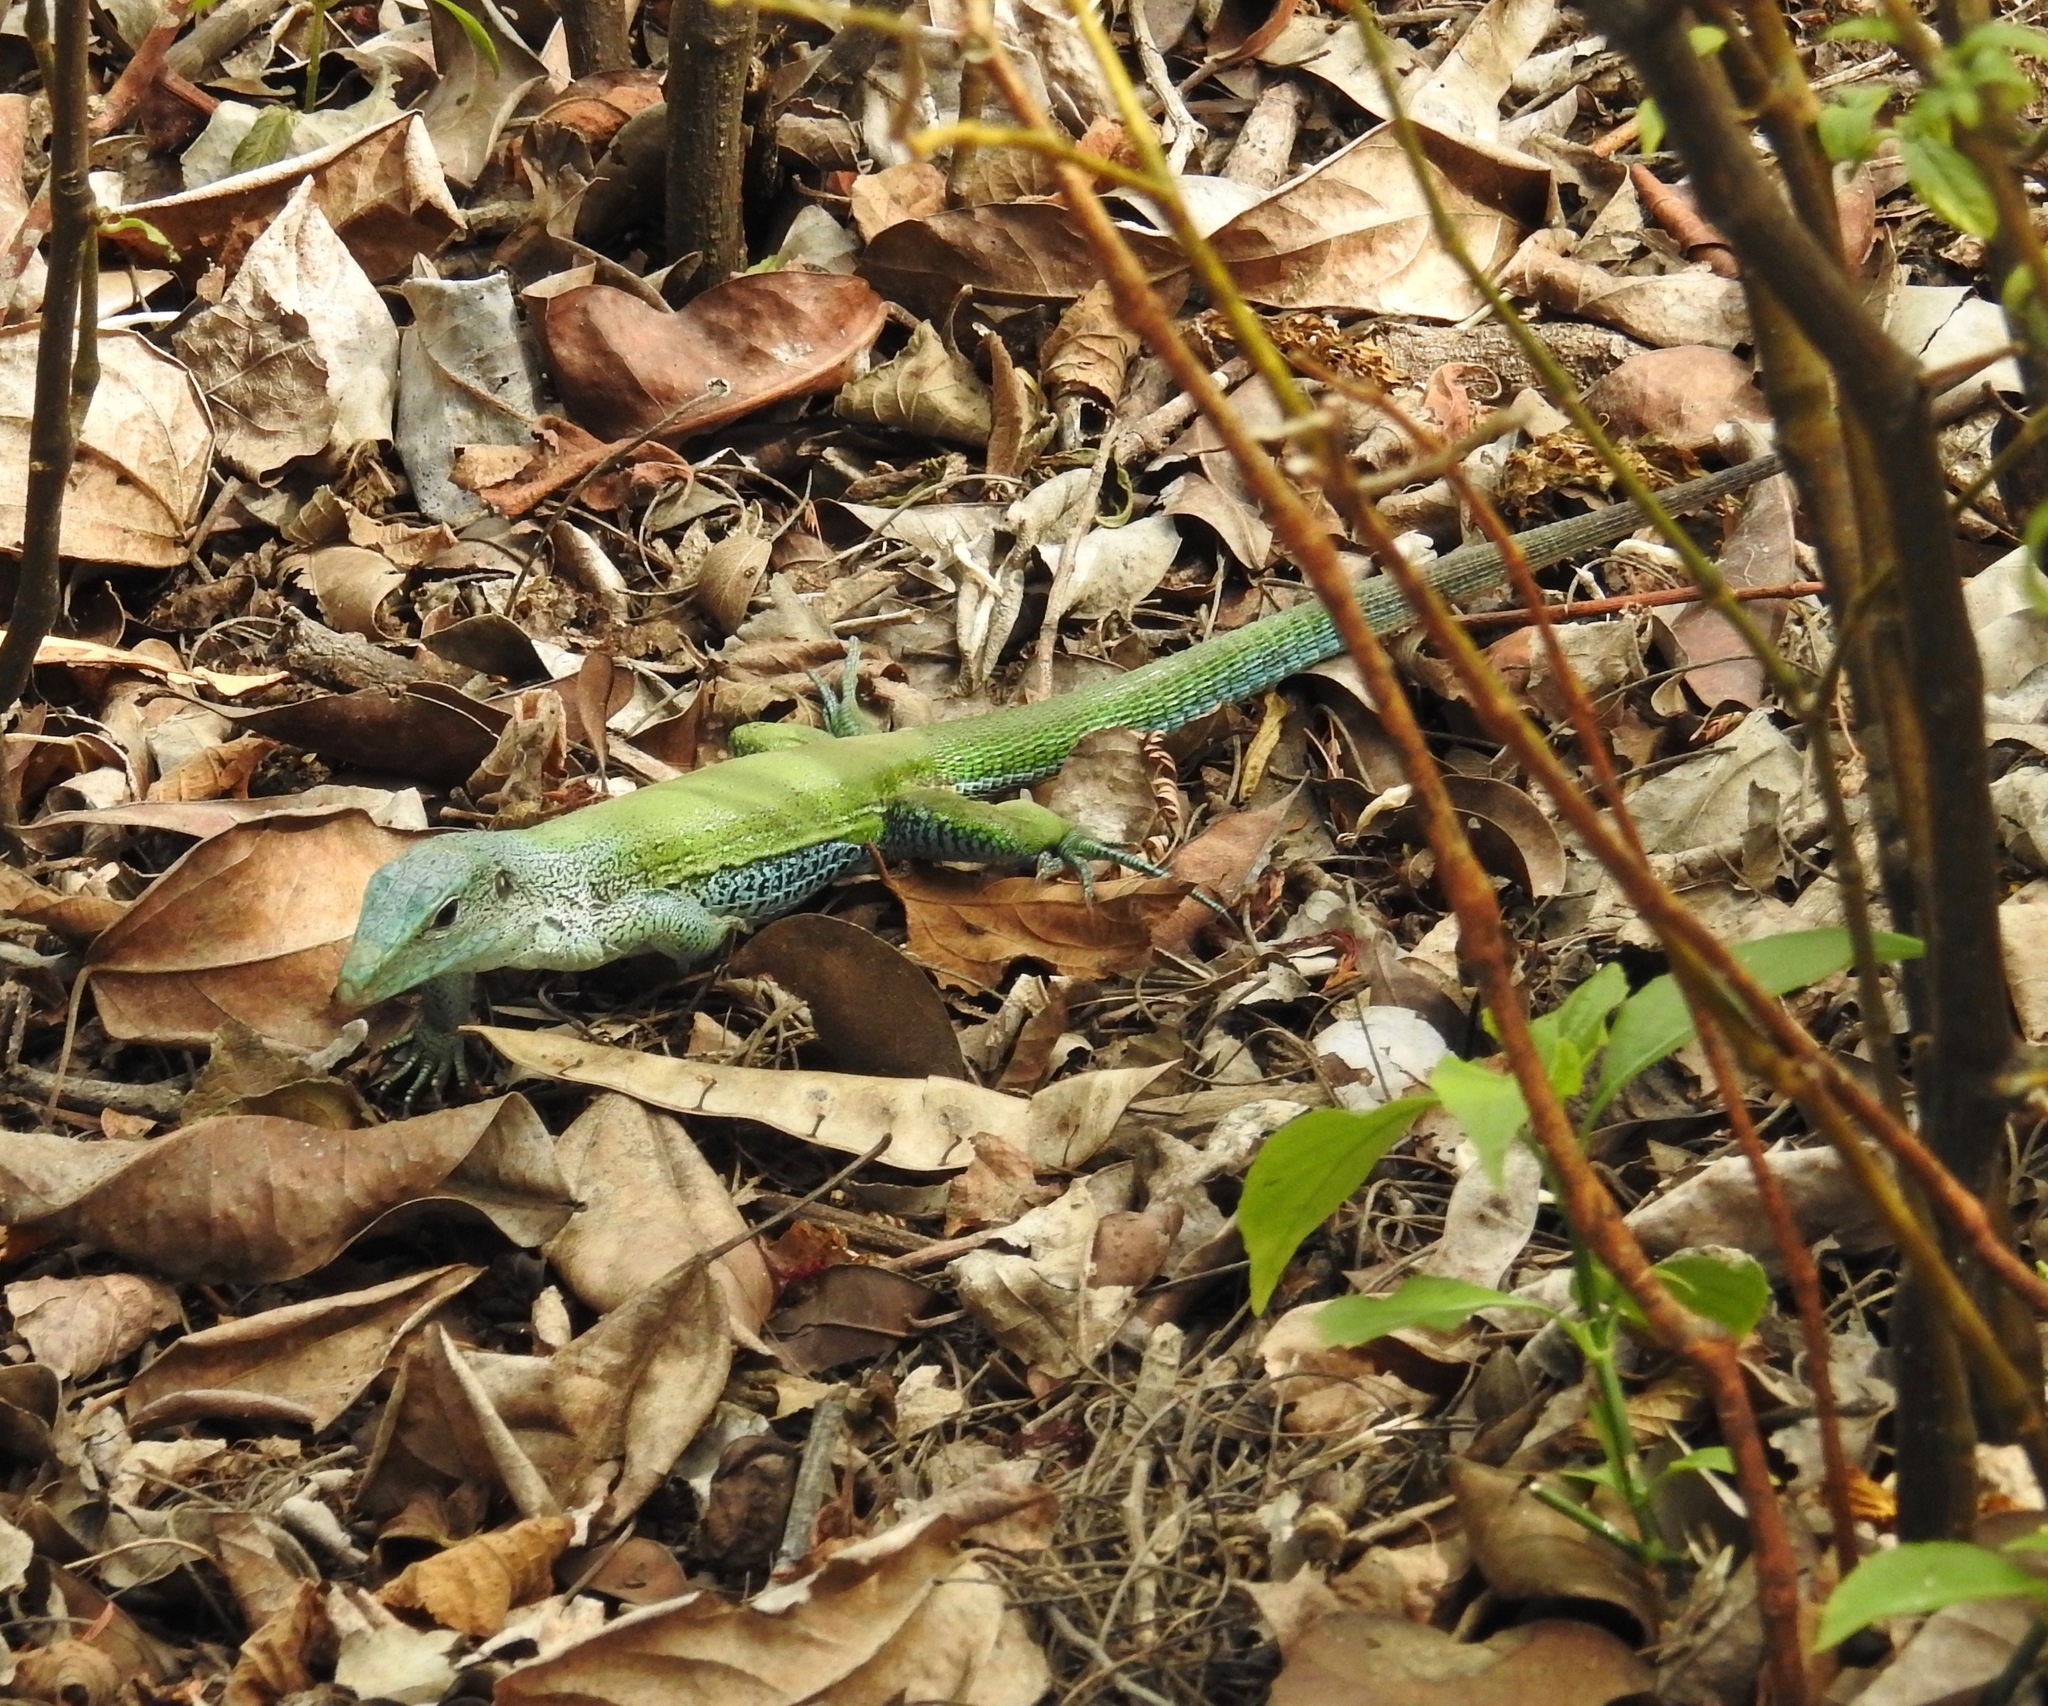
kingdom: Animalia
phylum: Chordata
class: Squamata
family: Teiidae
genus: Ameiva
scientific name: Ameiva ameiva
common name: Giant ameiva
